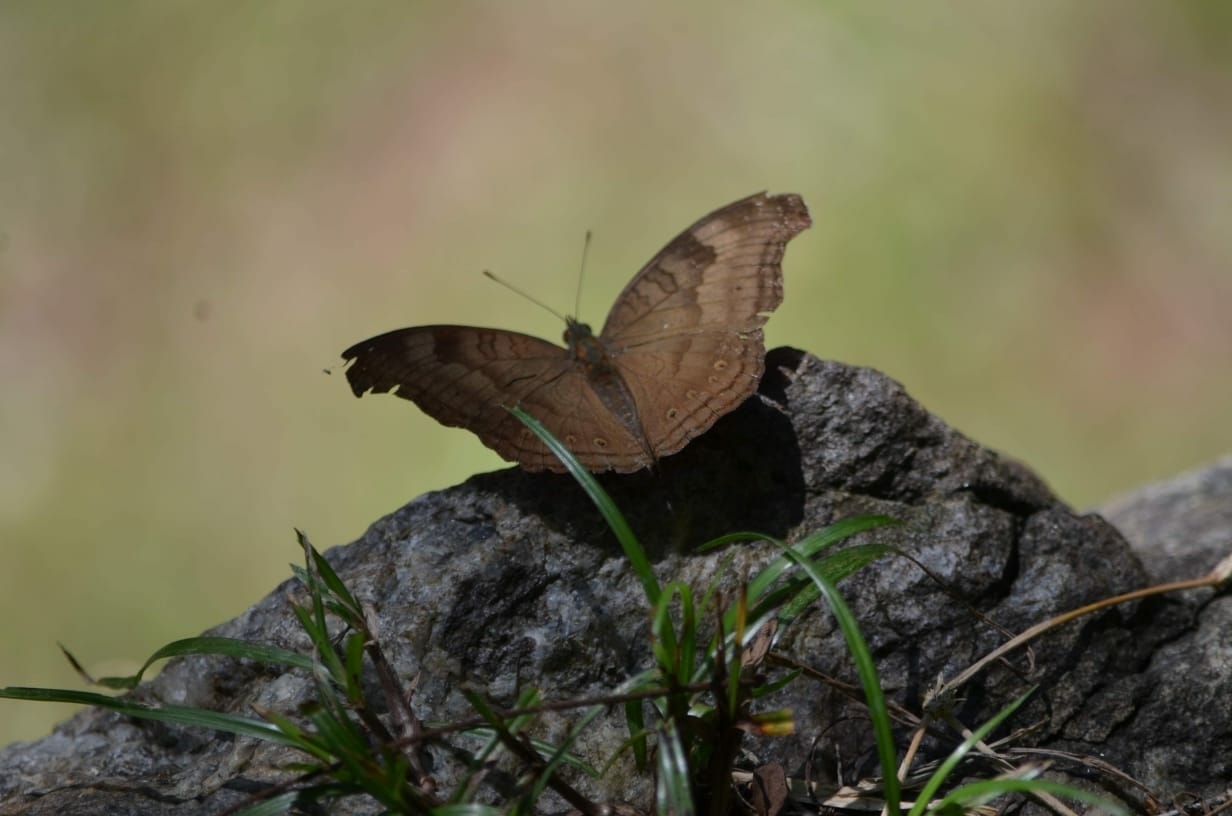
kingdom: Animalia
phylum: Arthropoda
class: Insecta
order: Lepidoptera
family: Nymphalidae
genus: Junonia
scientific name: Junonia iphita
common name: Chocolate pansy
